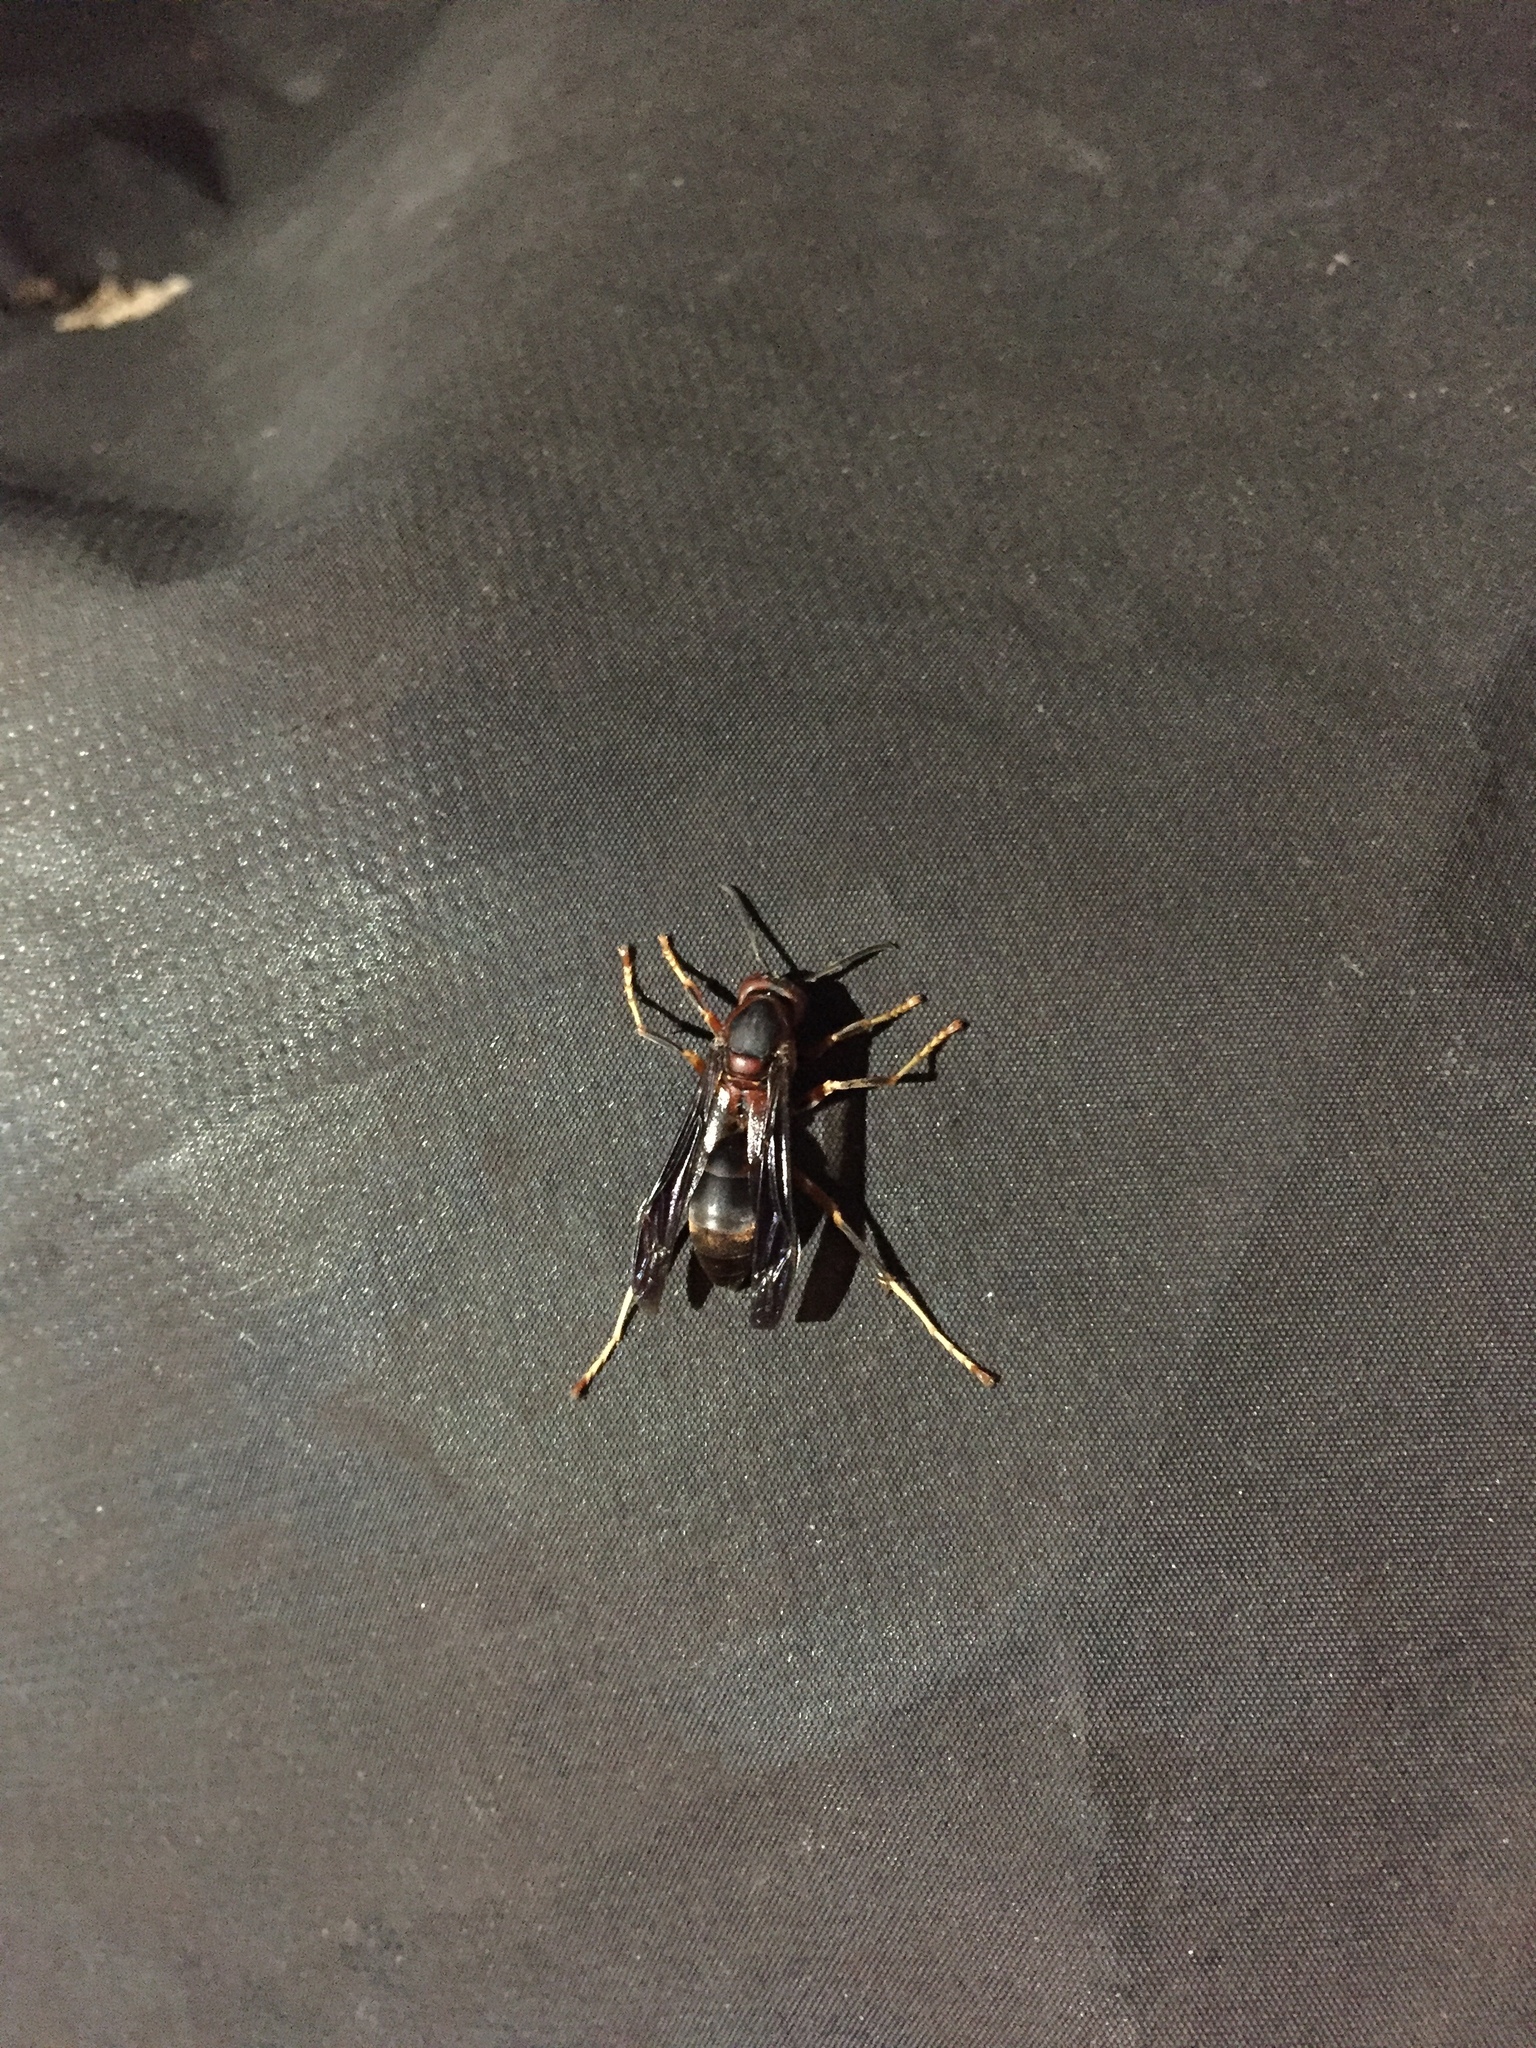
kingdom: Animalia
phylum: Arthropoda
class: Insecta
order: Hymenoptera
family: Eumenidae
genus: Polistes
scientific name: Polistes metricus
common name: Metric paper wasp
